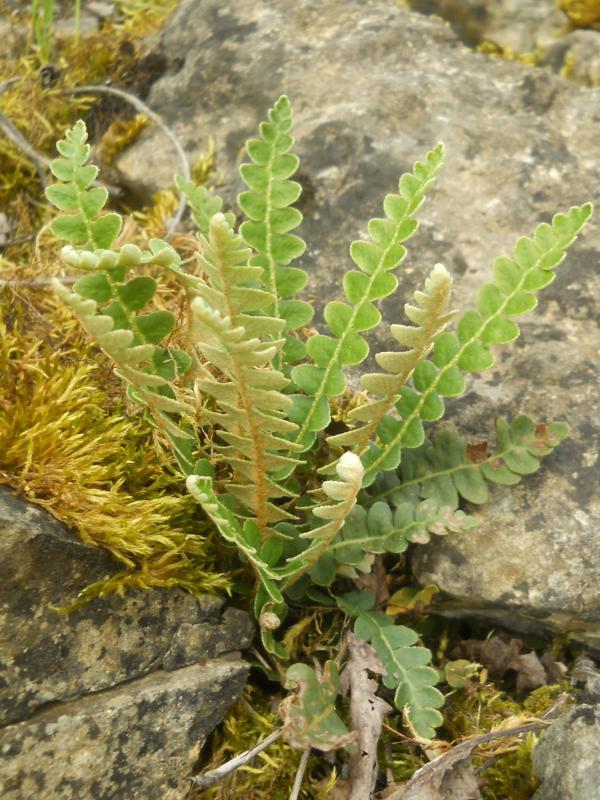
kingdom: Plantae
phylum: Tracheophyta
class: Polypodiopsida
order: Polypodiales
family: Aspleniaceae
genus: Asplenium
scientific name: Asplenium ceterach
